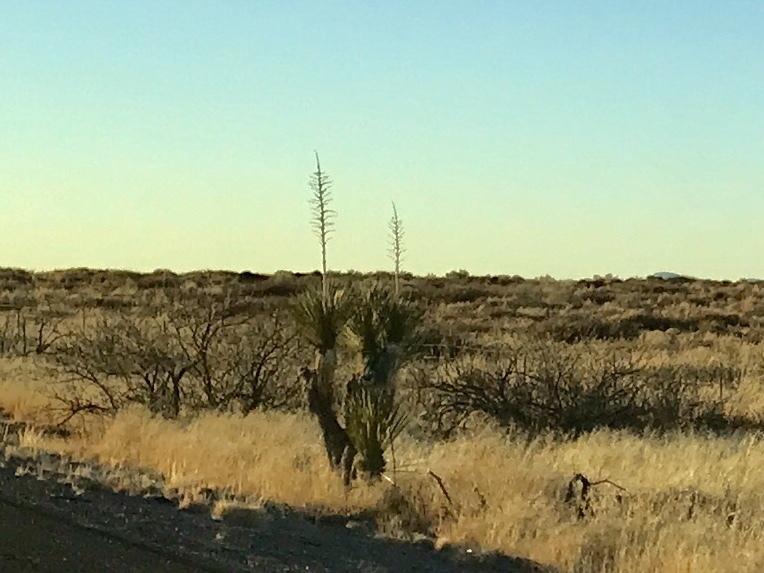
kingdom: Plantae
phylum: Tracheophyta
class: Liliopsida
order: Asparagales
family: Asparagaceae
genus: Yucca
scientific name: Yucca elata
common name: Palmella
